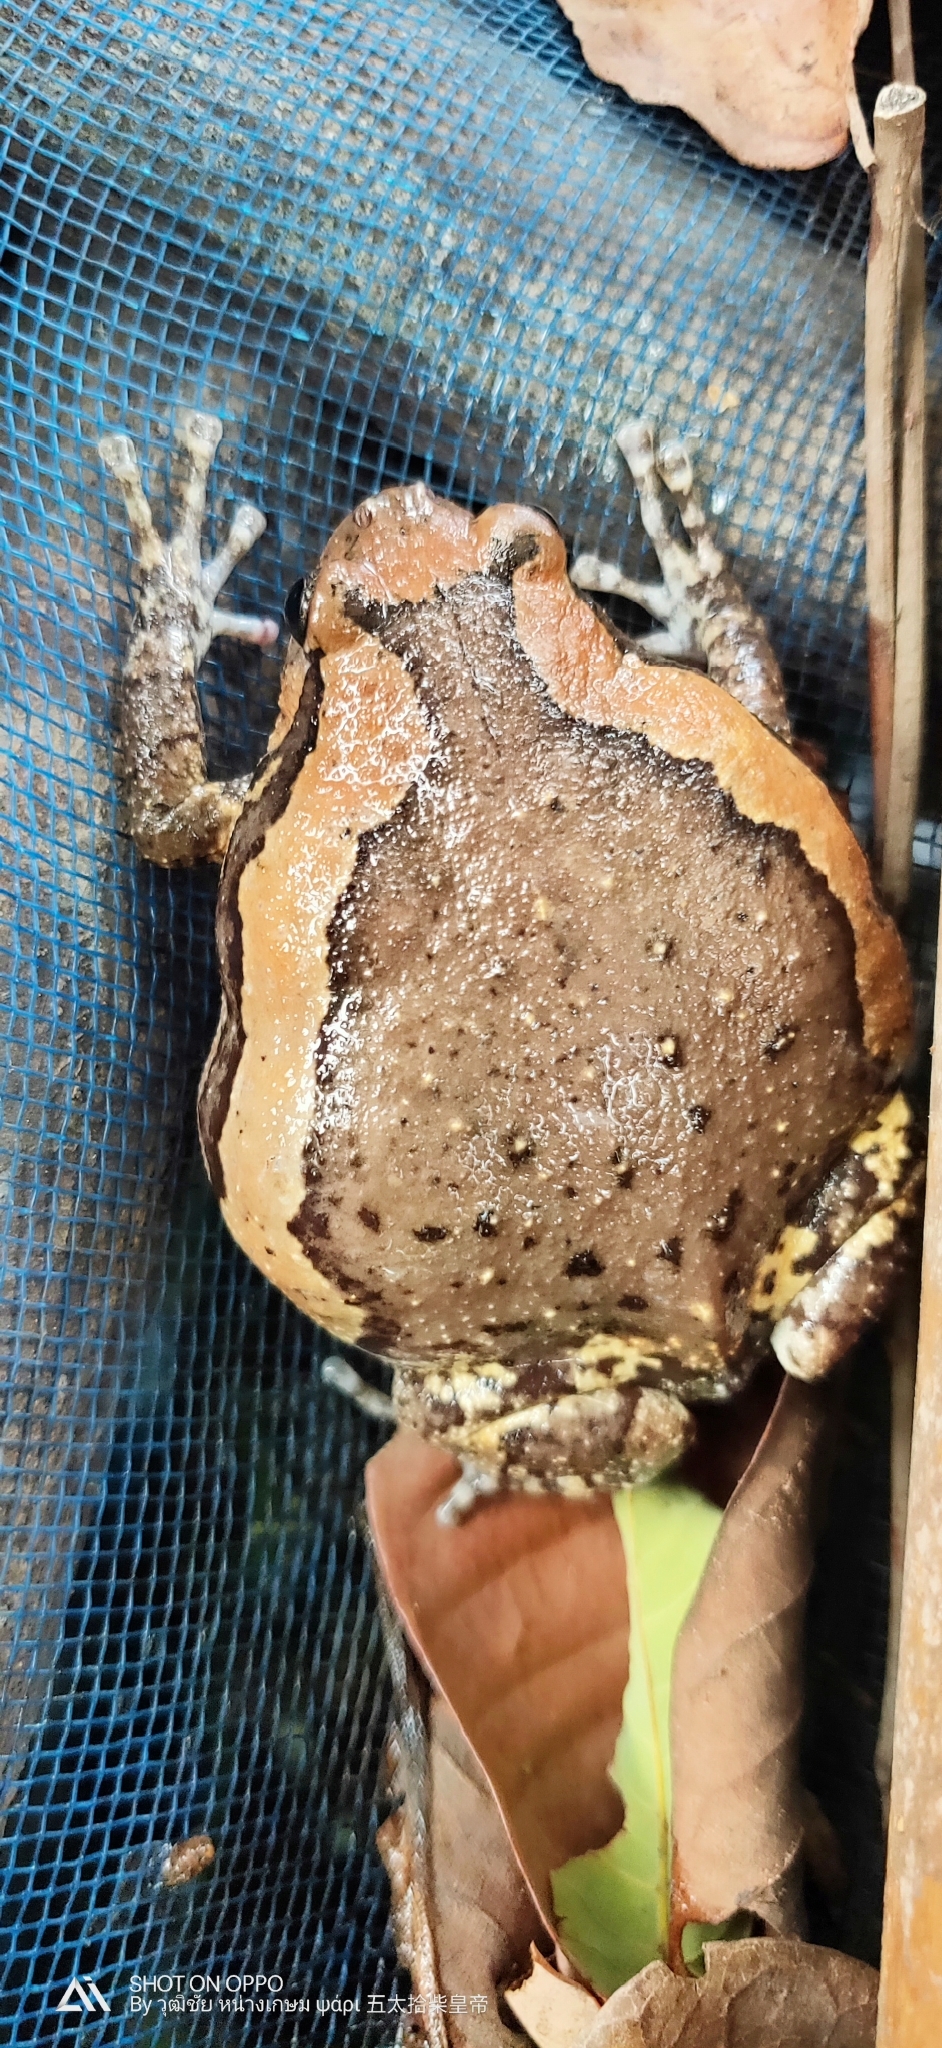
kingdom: Animalia
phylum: Chordata
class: Amphibia
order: Anura
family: Microhylidae
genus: Kaloula
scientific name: Kaloula pulchra
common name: Common,banded bullfrog
